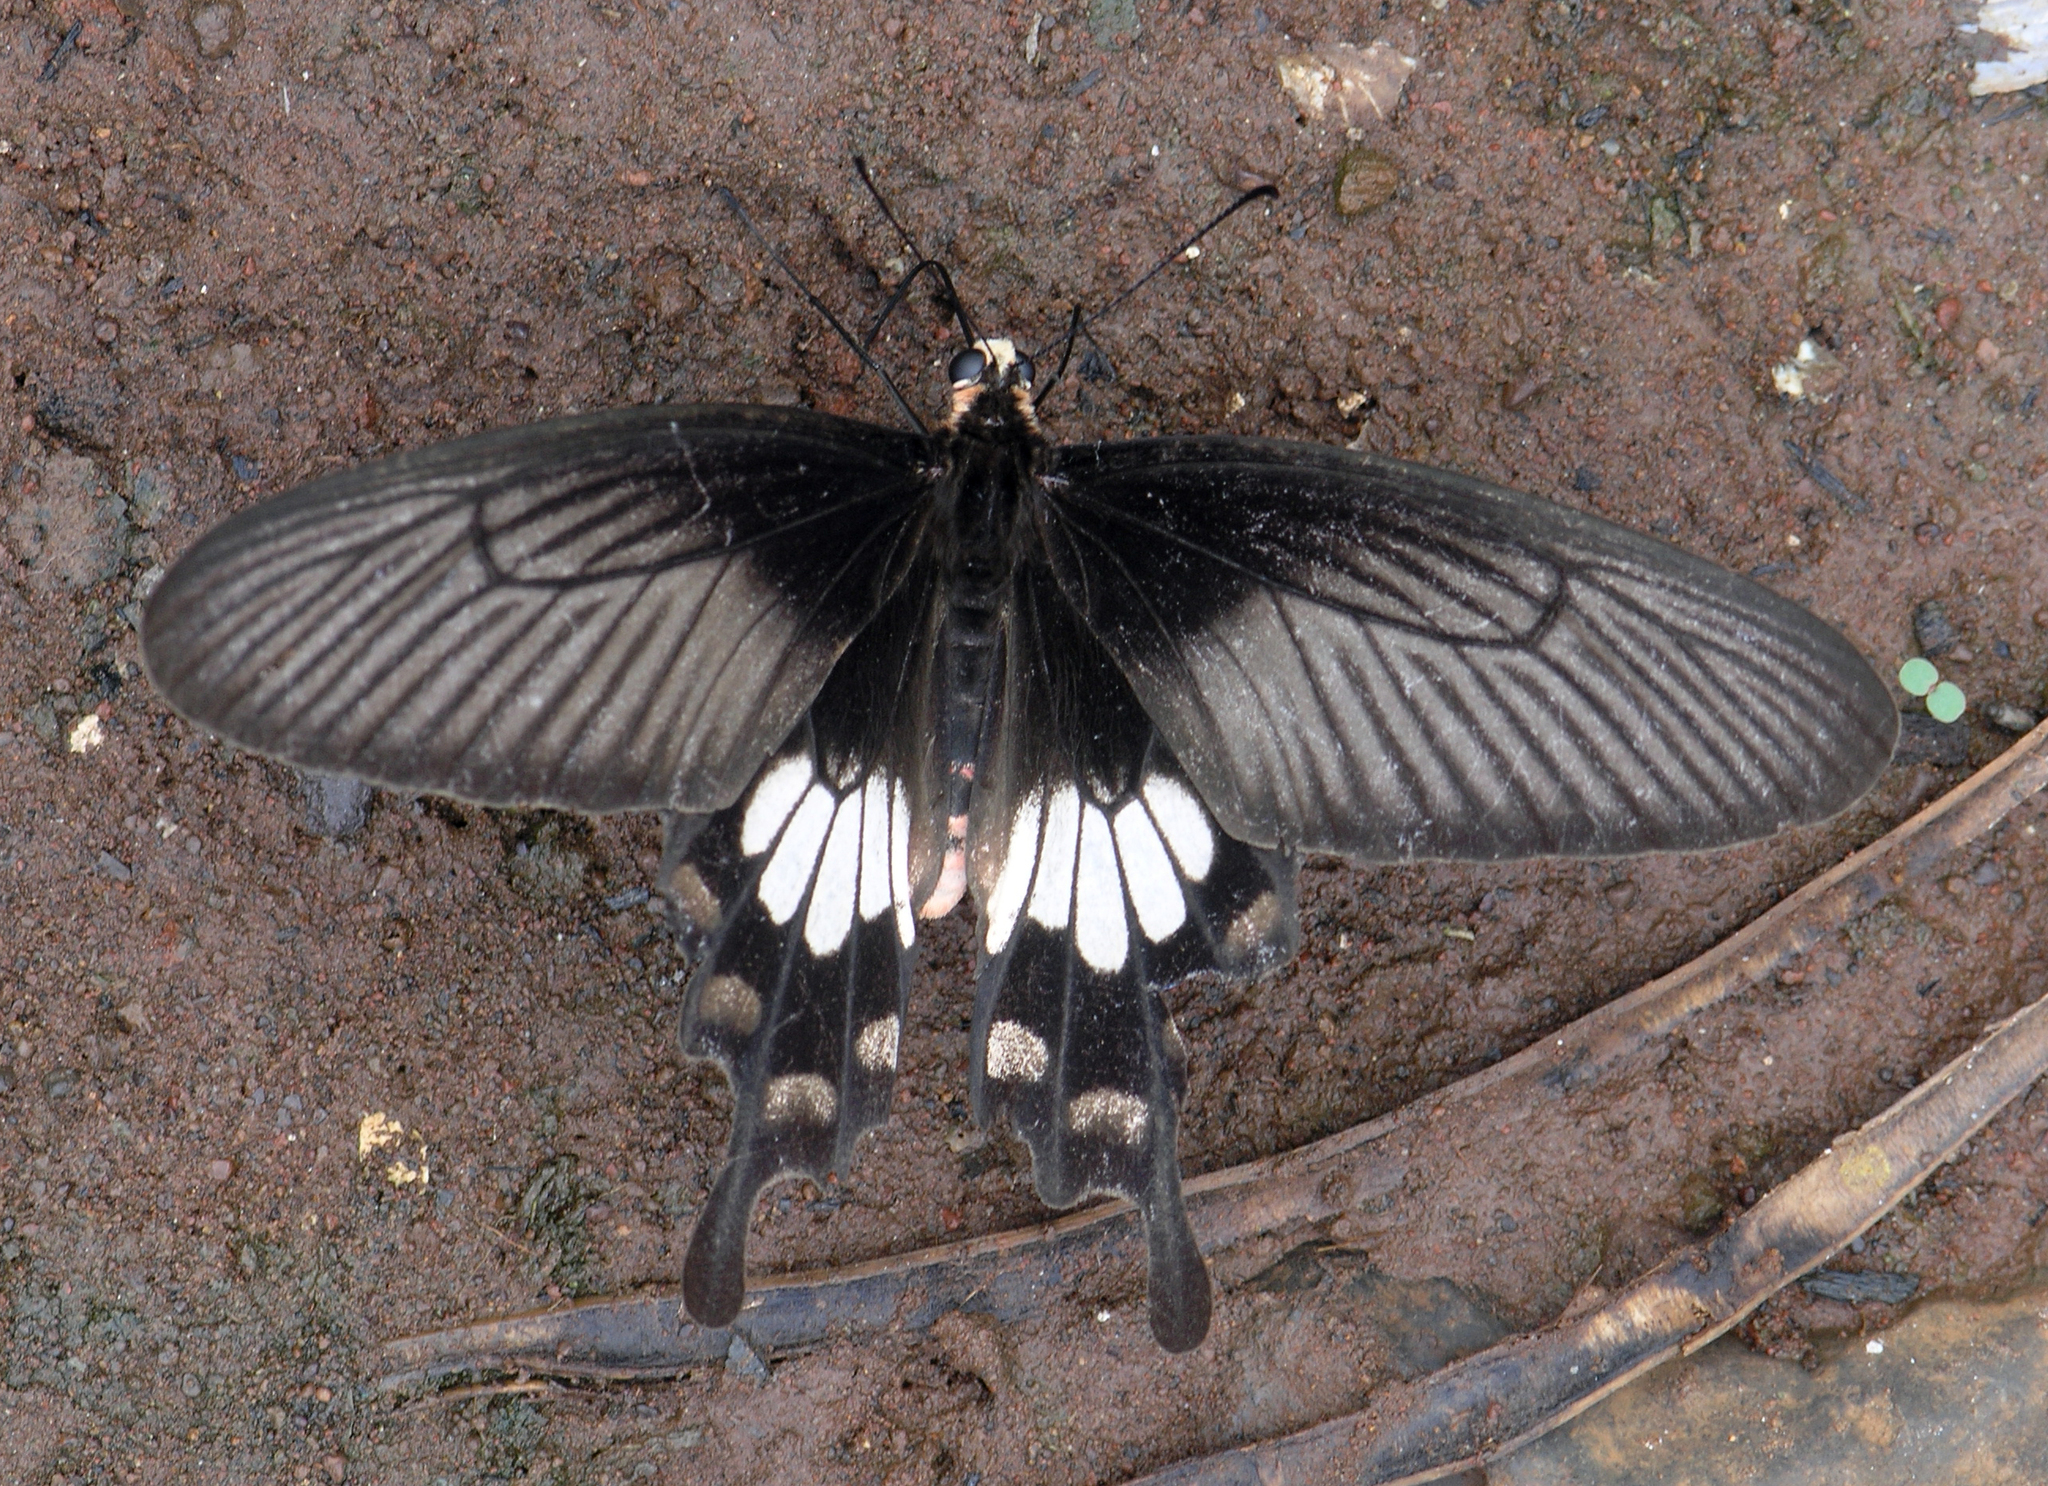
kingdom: Animalia
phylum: Arthropoda
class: Insecta
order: Lepidoptera
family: Papilionidae
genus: Pachliopta
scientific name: Pachliopta aristolochiae
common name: Common rose
